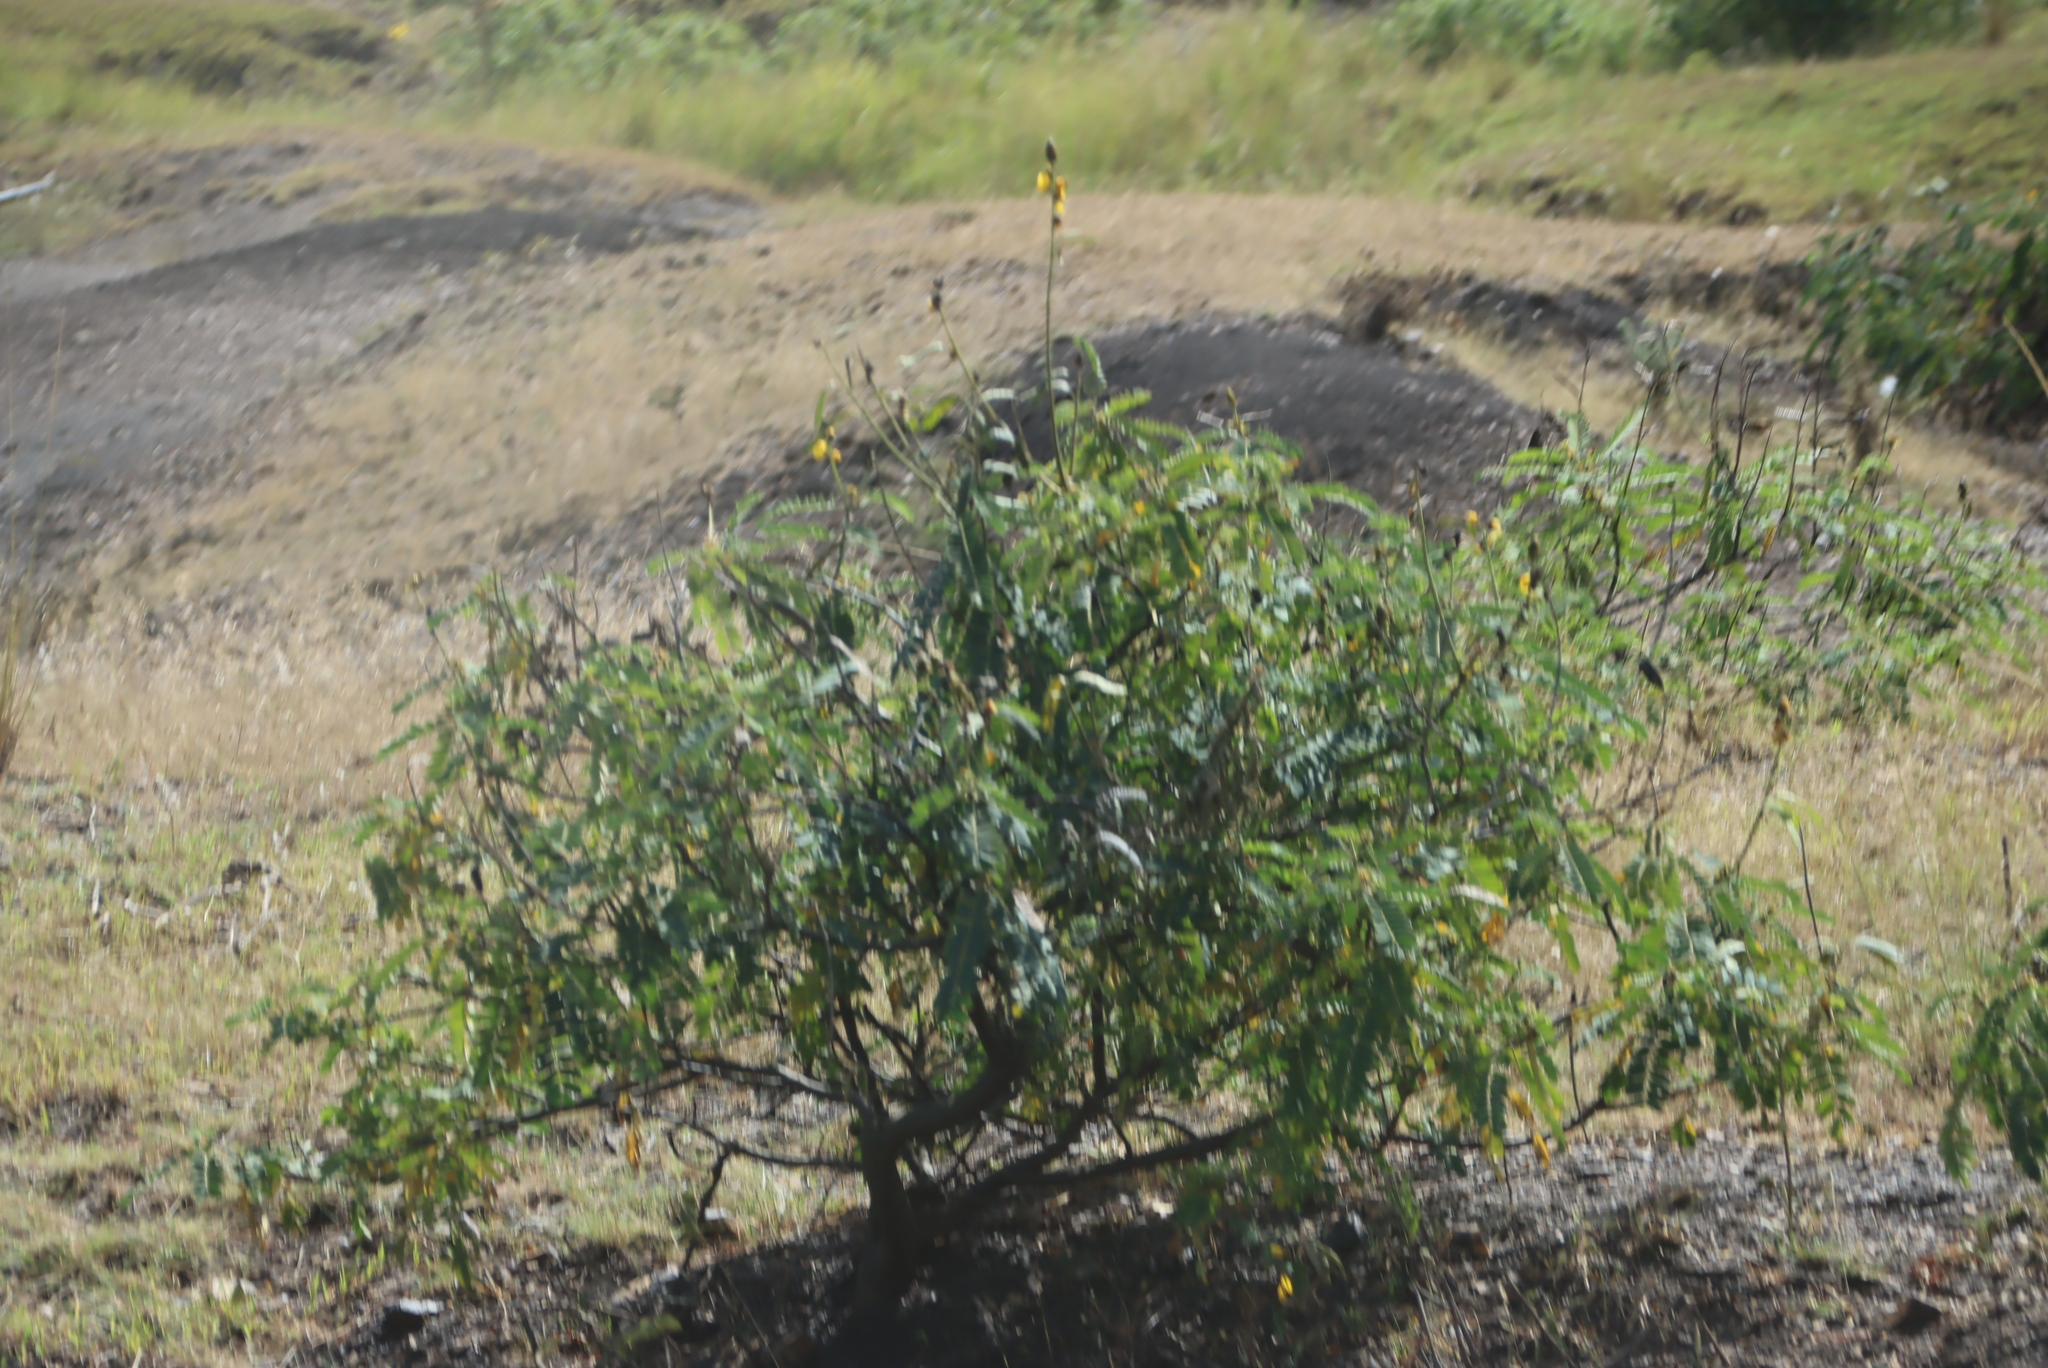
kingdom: Plantae
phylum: Tracheophyta
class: Magnoliopsida
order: Fabales
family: Fabaceae
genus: Senna
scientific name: Senna didymobotrya
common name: African senna
